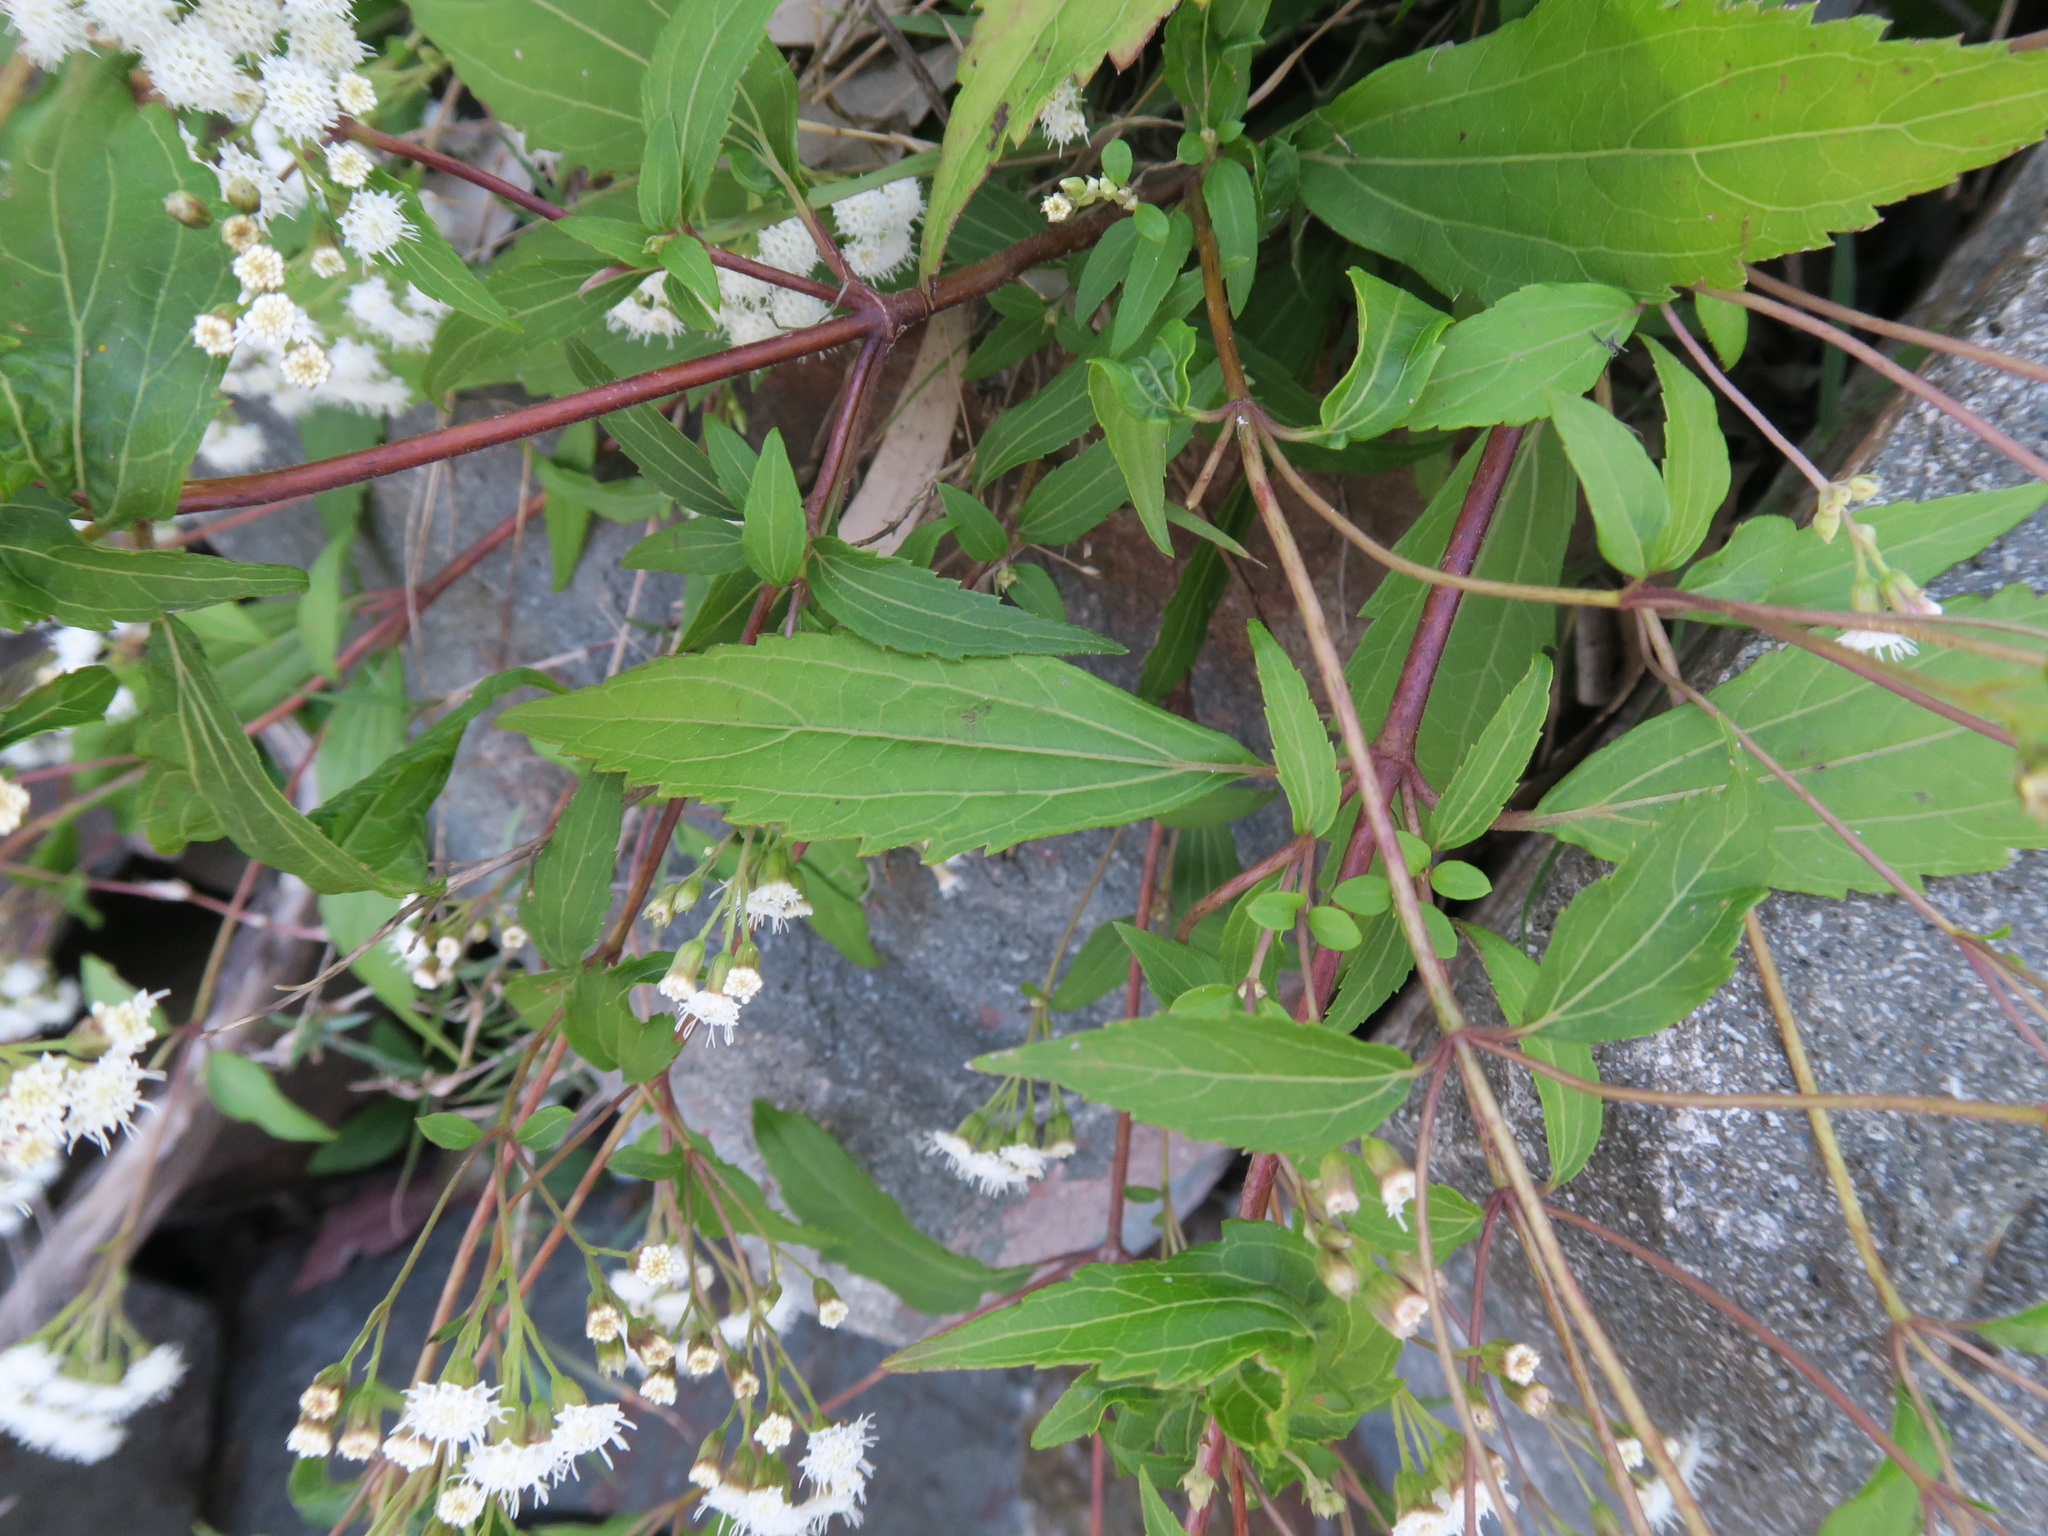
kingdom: Plantae
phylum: Tracheophyta
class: Magnoliopsida
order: Asterales
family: Asteraceae
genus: Ageratina
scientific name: Ageratina riparia
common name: Creeping croftonweed
